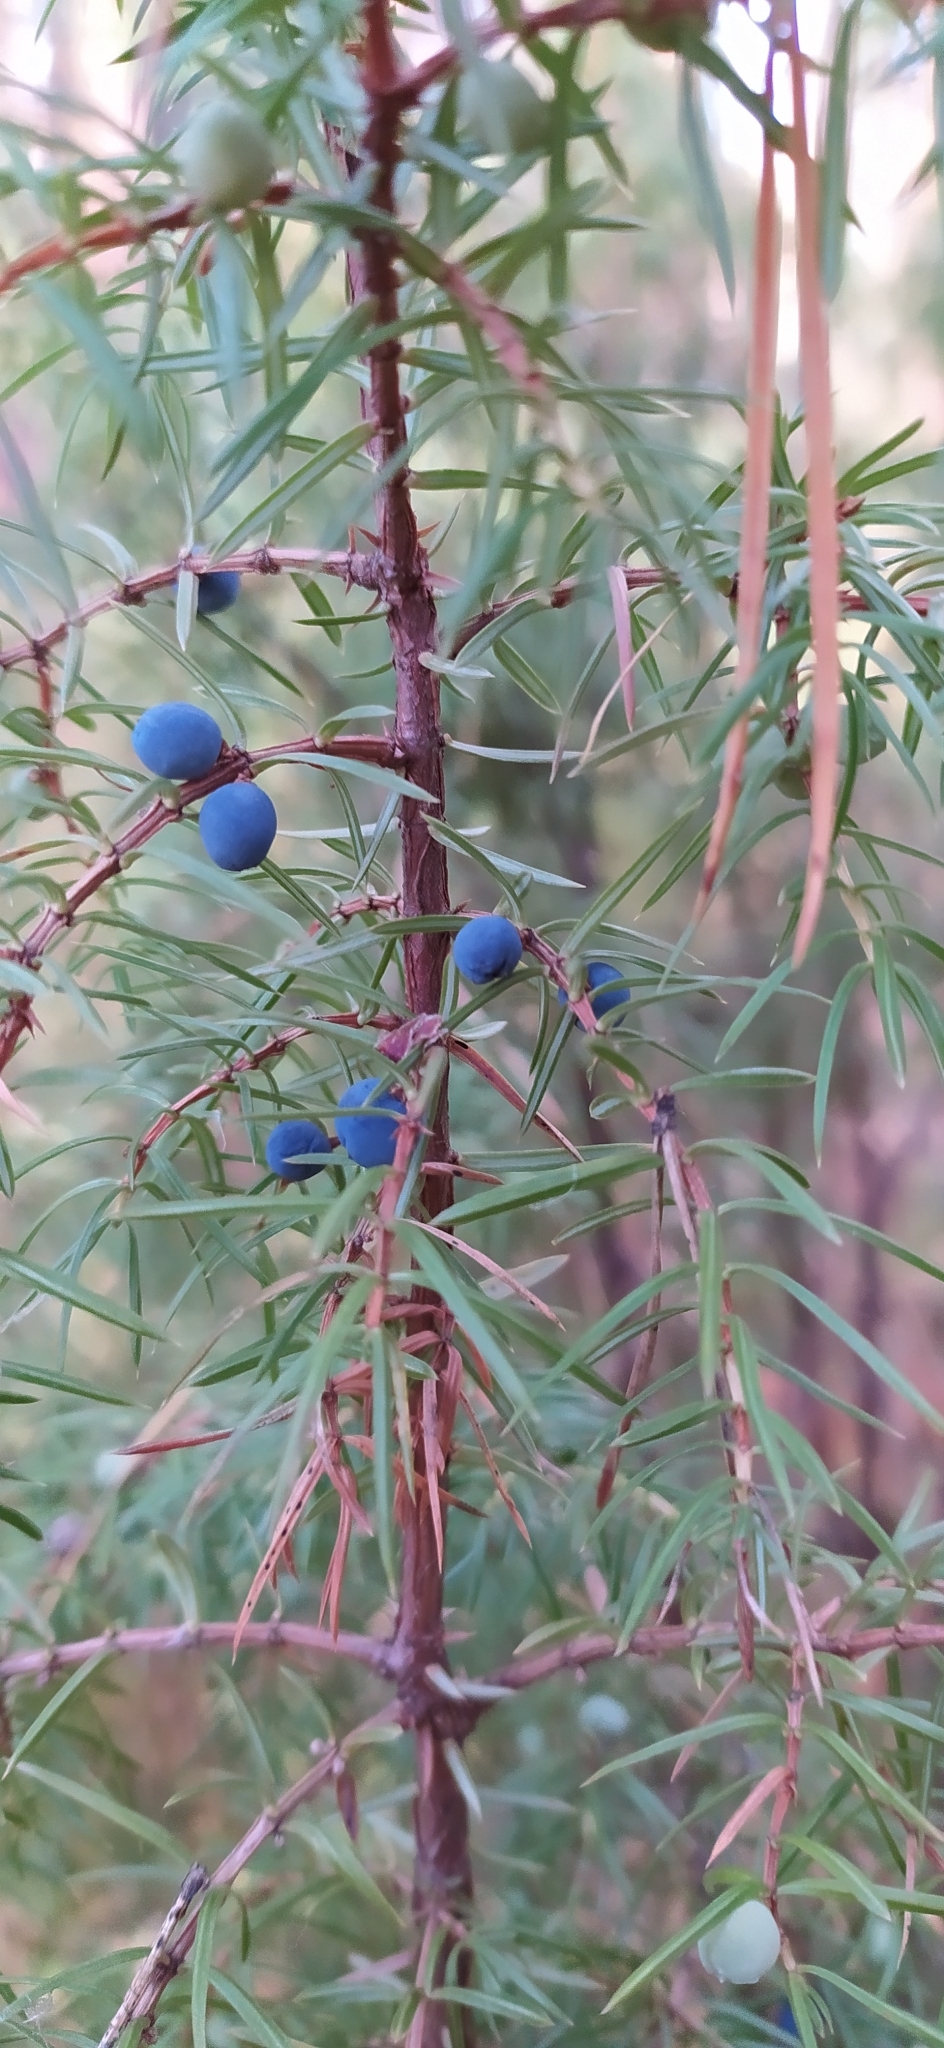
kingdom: Plantae
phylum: Tracheophyta
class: Pinopsida
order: Pinales
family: Cupressaceae
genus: Juniperus
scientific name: Juniperus communis
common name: Common juniper
